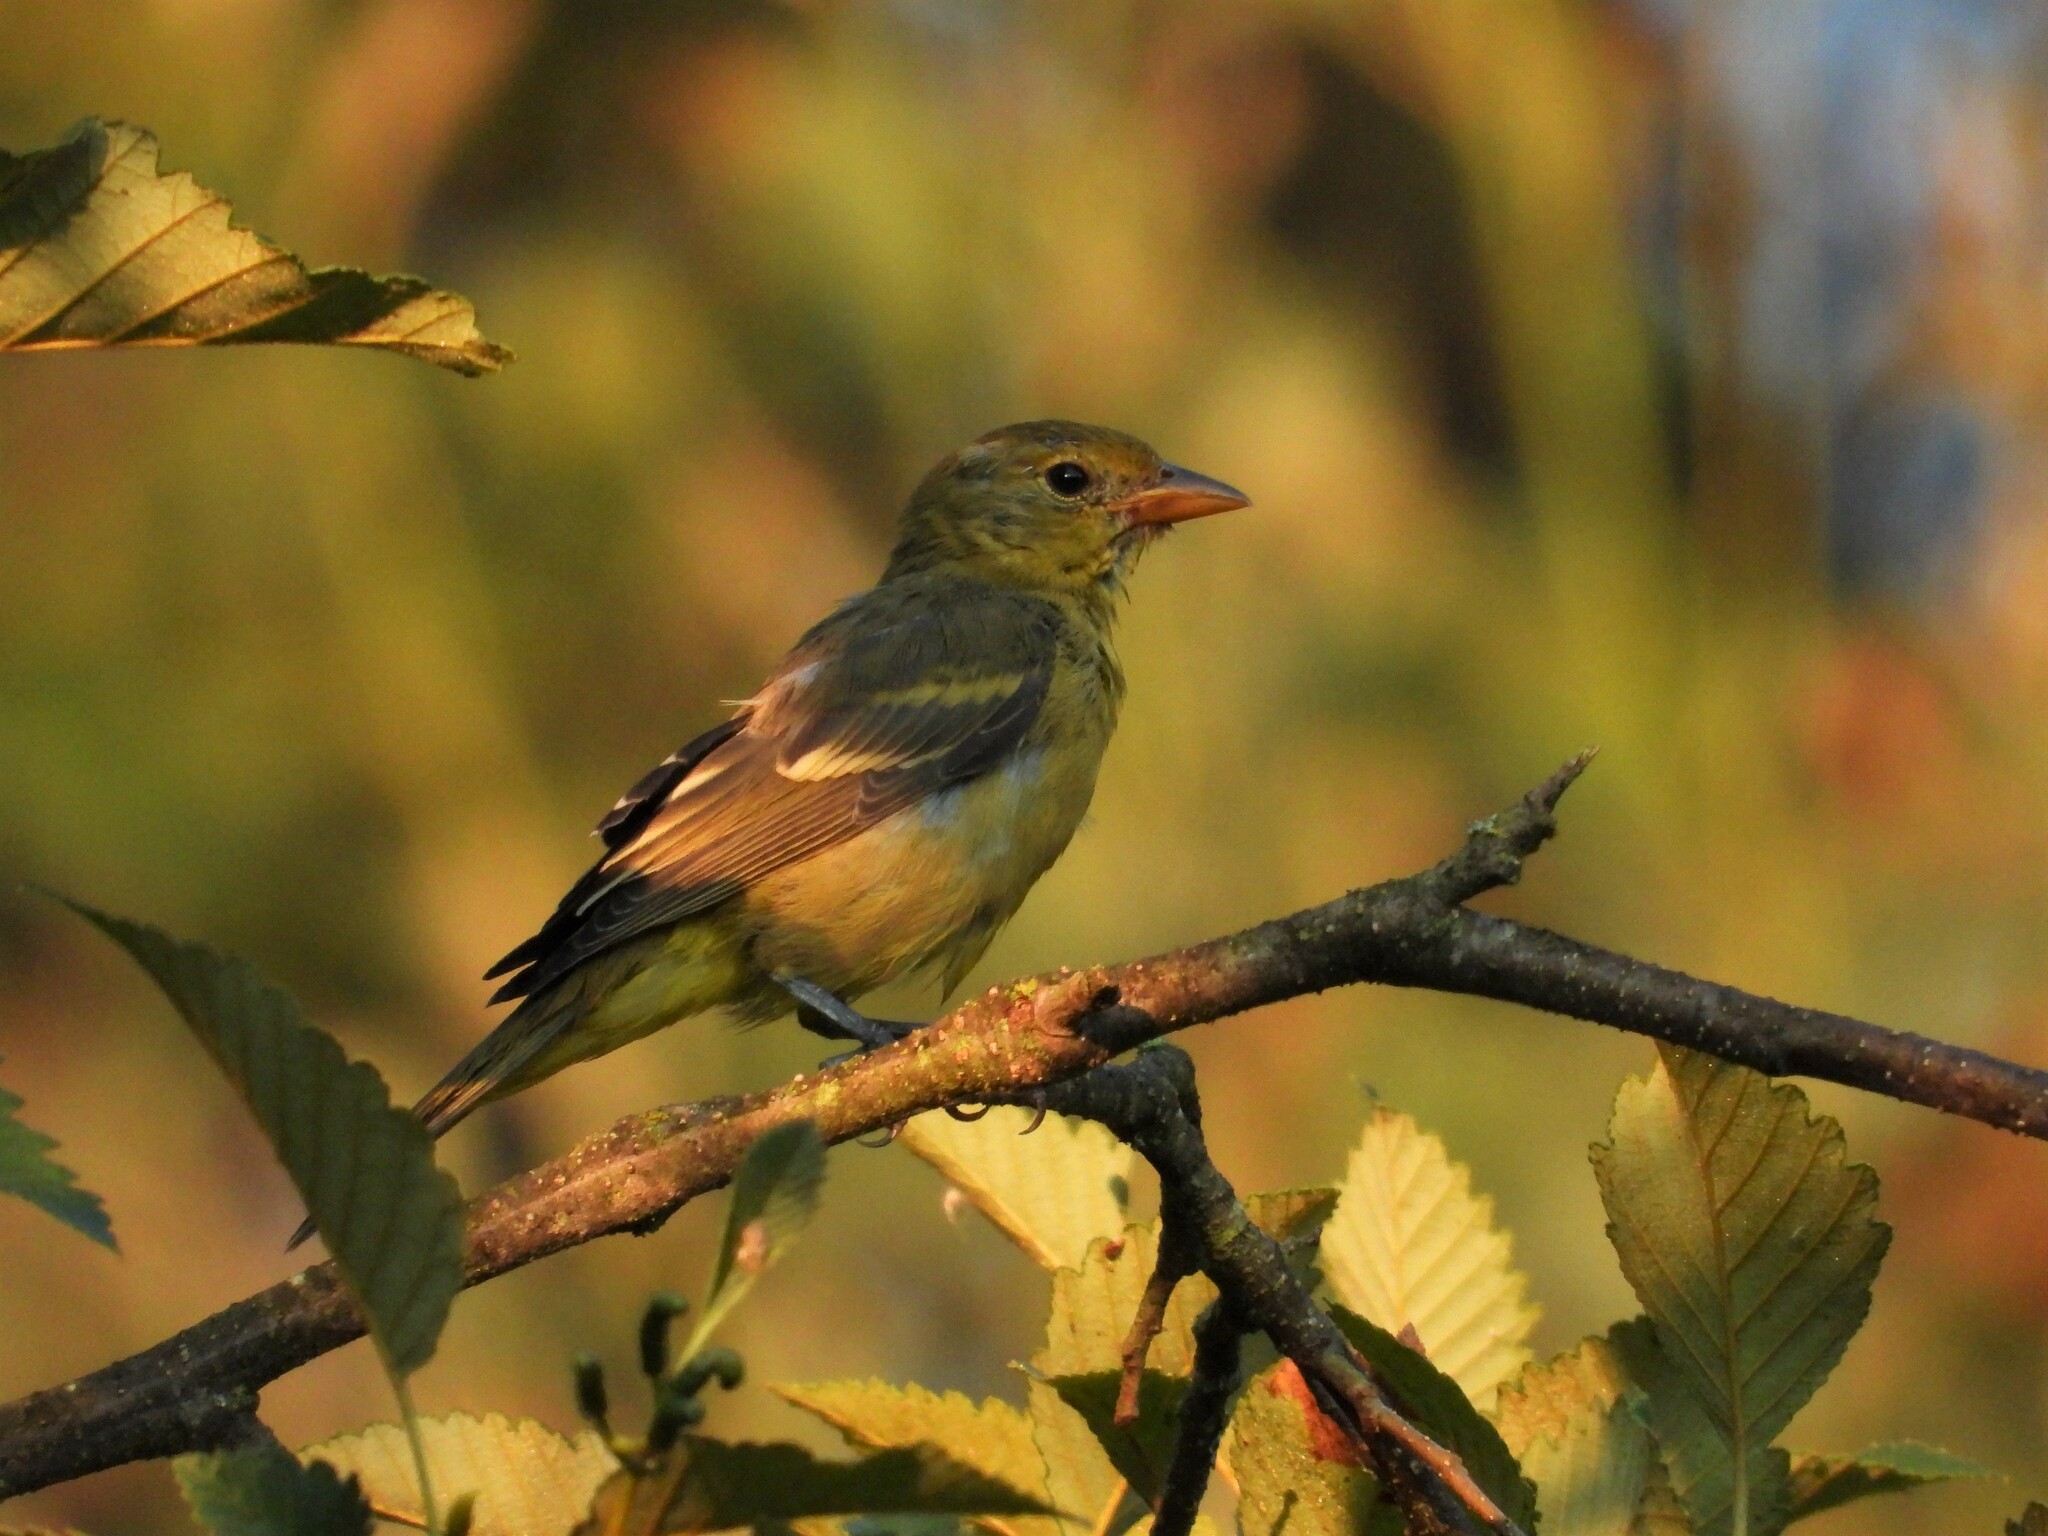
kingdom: Animalia
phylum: Chordata
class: Aves
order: Passeriformes
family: Cardinalidae
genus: Piranga
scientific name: Piranga ludoviciana
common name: Western tanager
